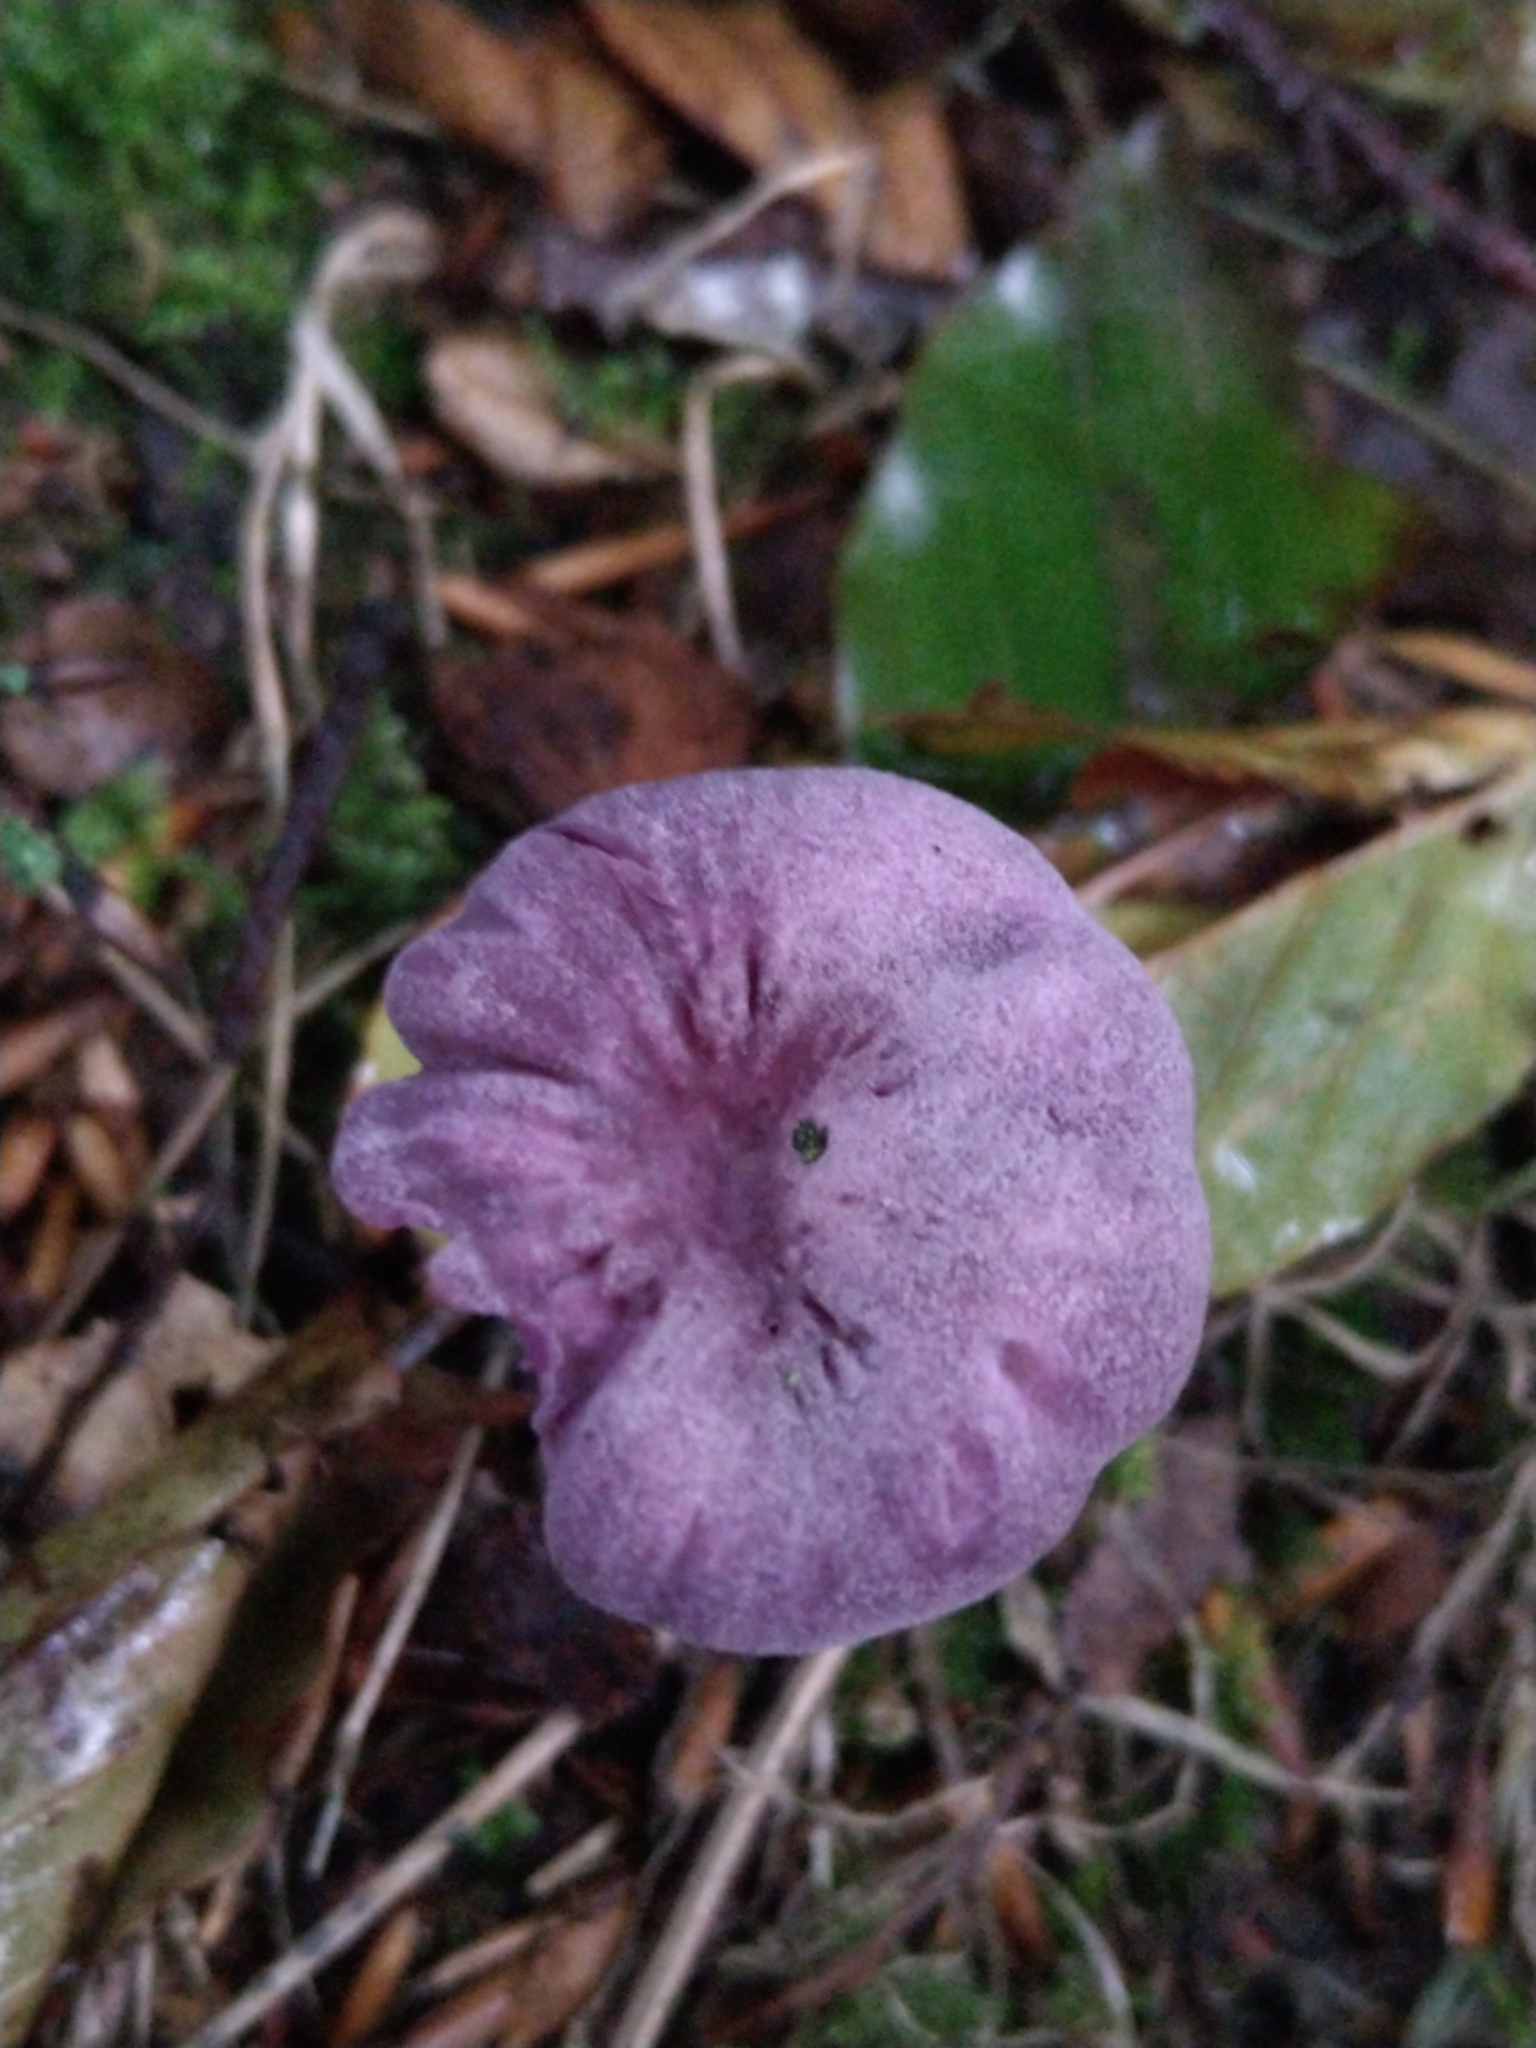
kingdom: Fungi
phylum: Basidiomycota
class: Agaricomycetes
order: Agaricales
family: Hydnangiaceae
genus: Laccaria
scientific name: Laccaria amethystina
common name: Amethyst deceiver
